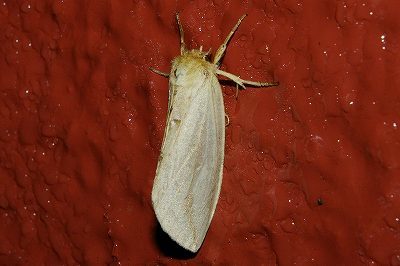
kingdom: Animalia
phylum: Arthropoda
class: Insecta
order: Lepidoptera
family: Notodontidae
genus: Cutuza
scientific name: Cutuza
